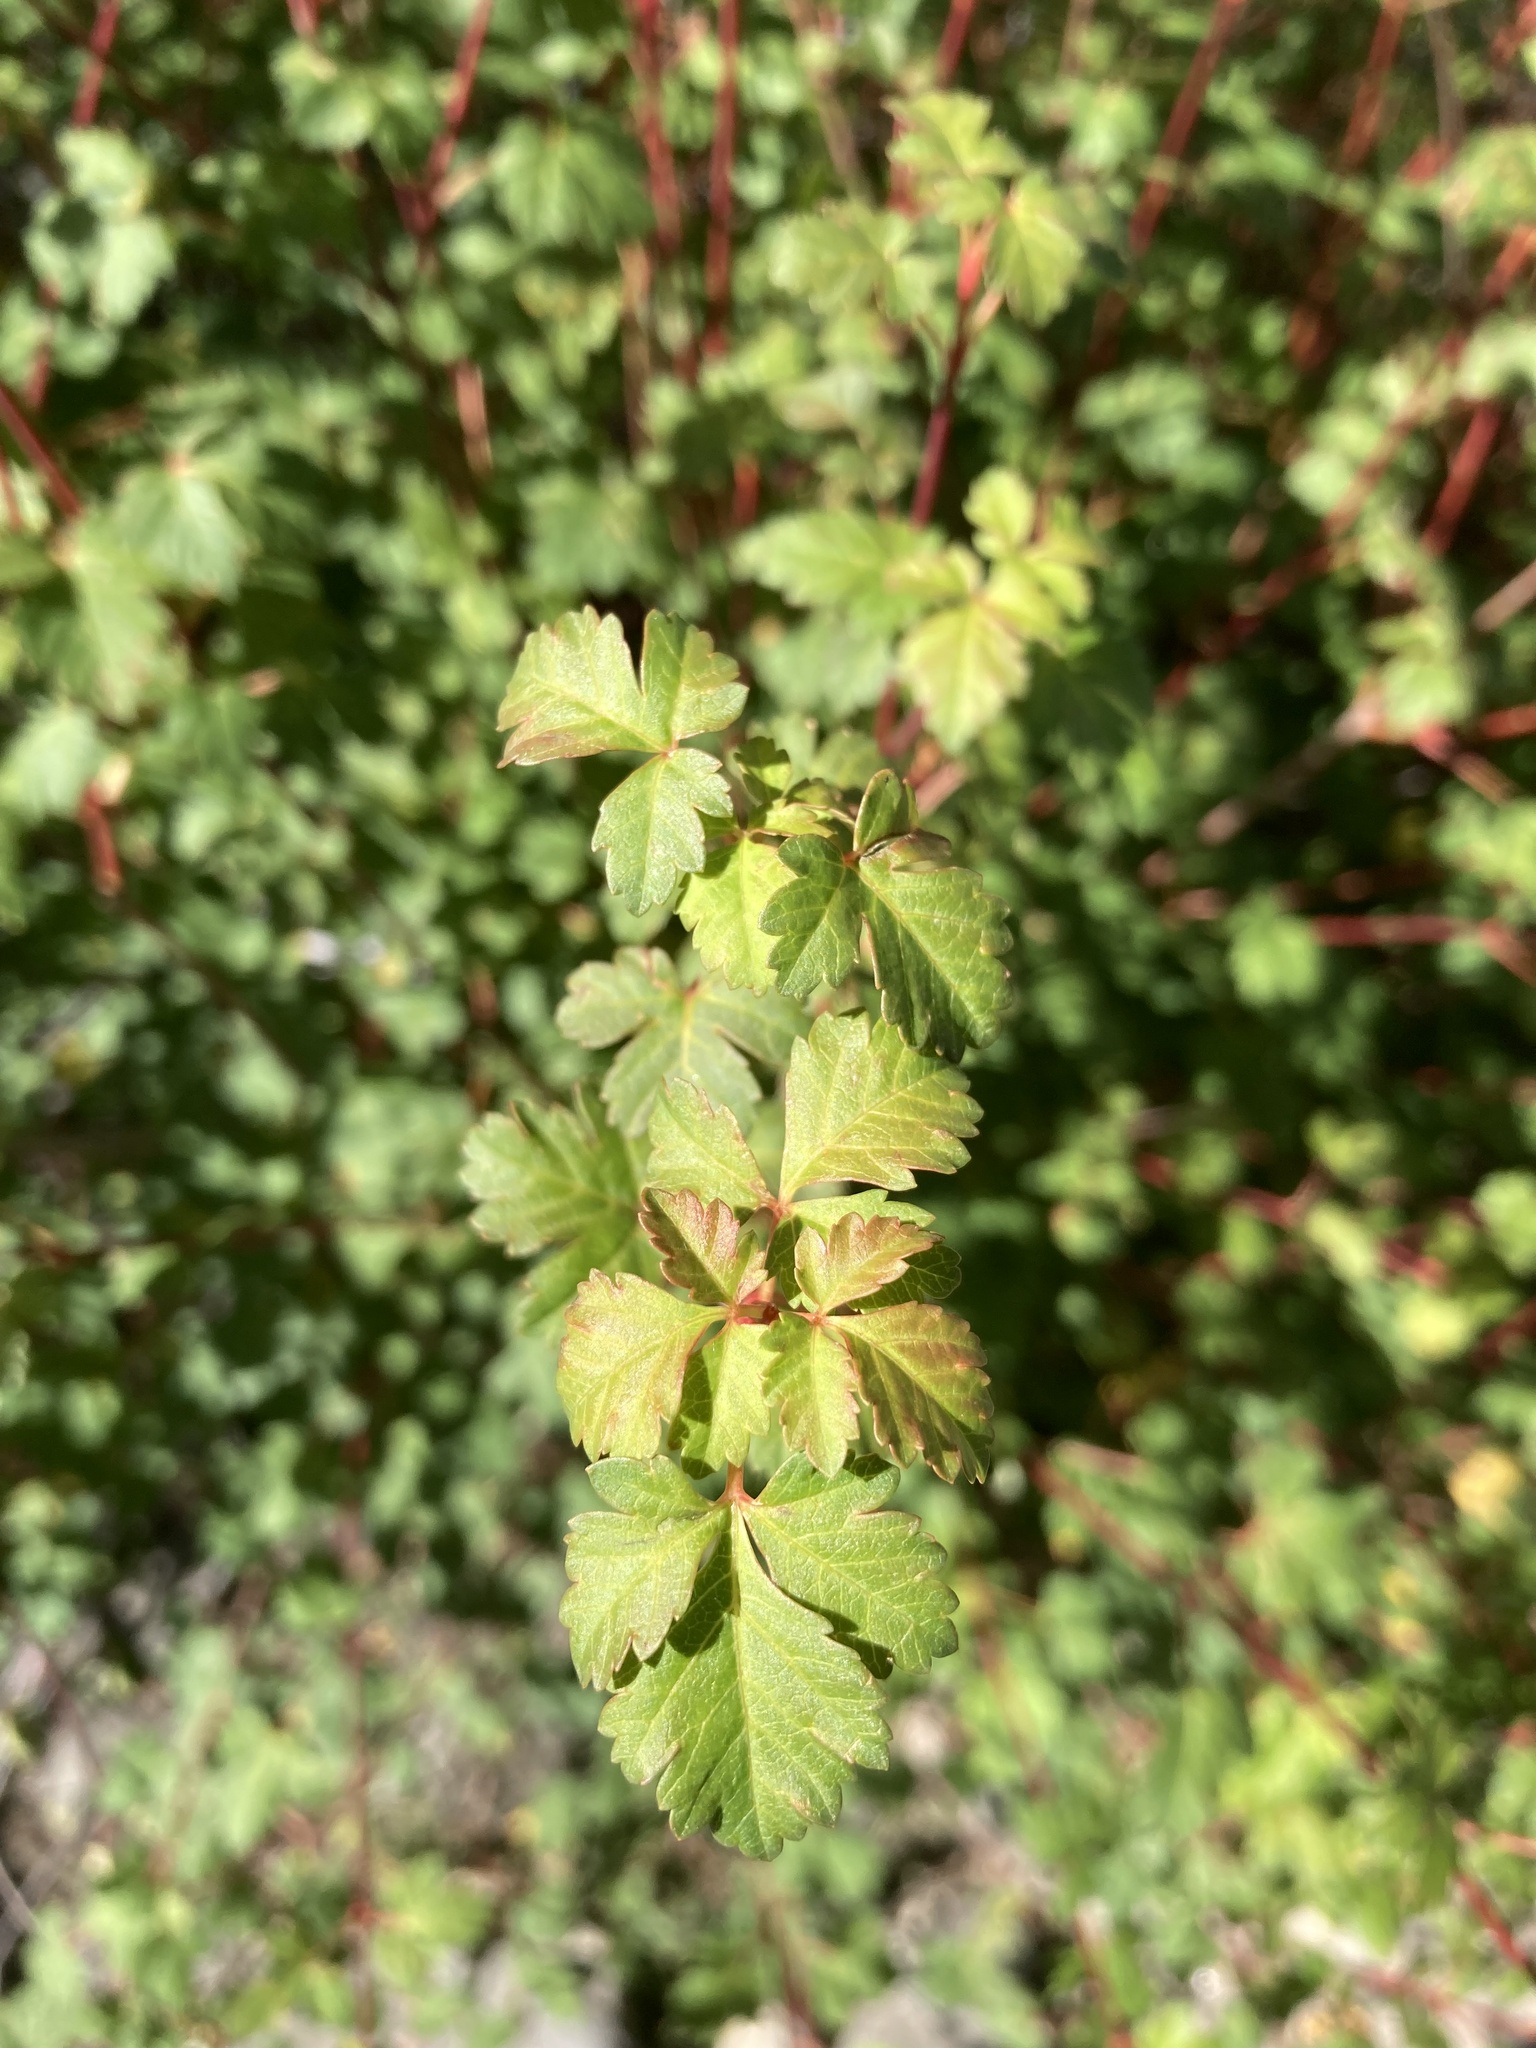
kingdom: Plantae
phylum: Tracheophyta
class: Magnoliopsida
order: Sapindales
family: Sapindaceae
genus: Acer
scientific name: Acer glabrum
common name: Rocky mountain maple
